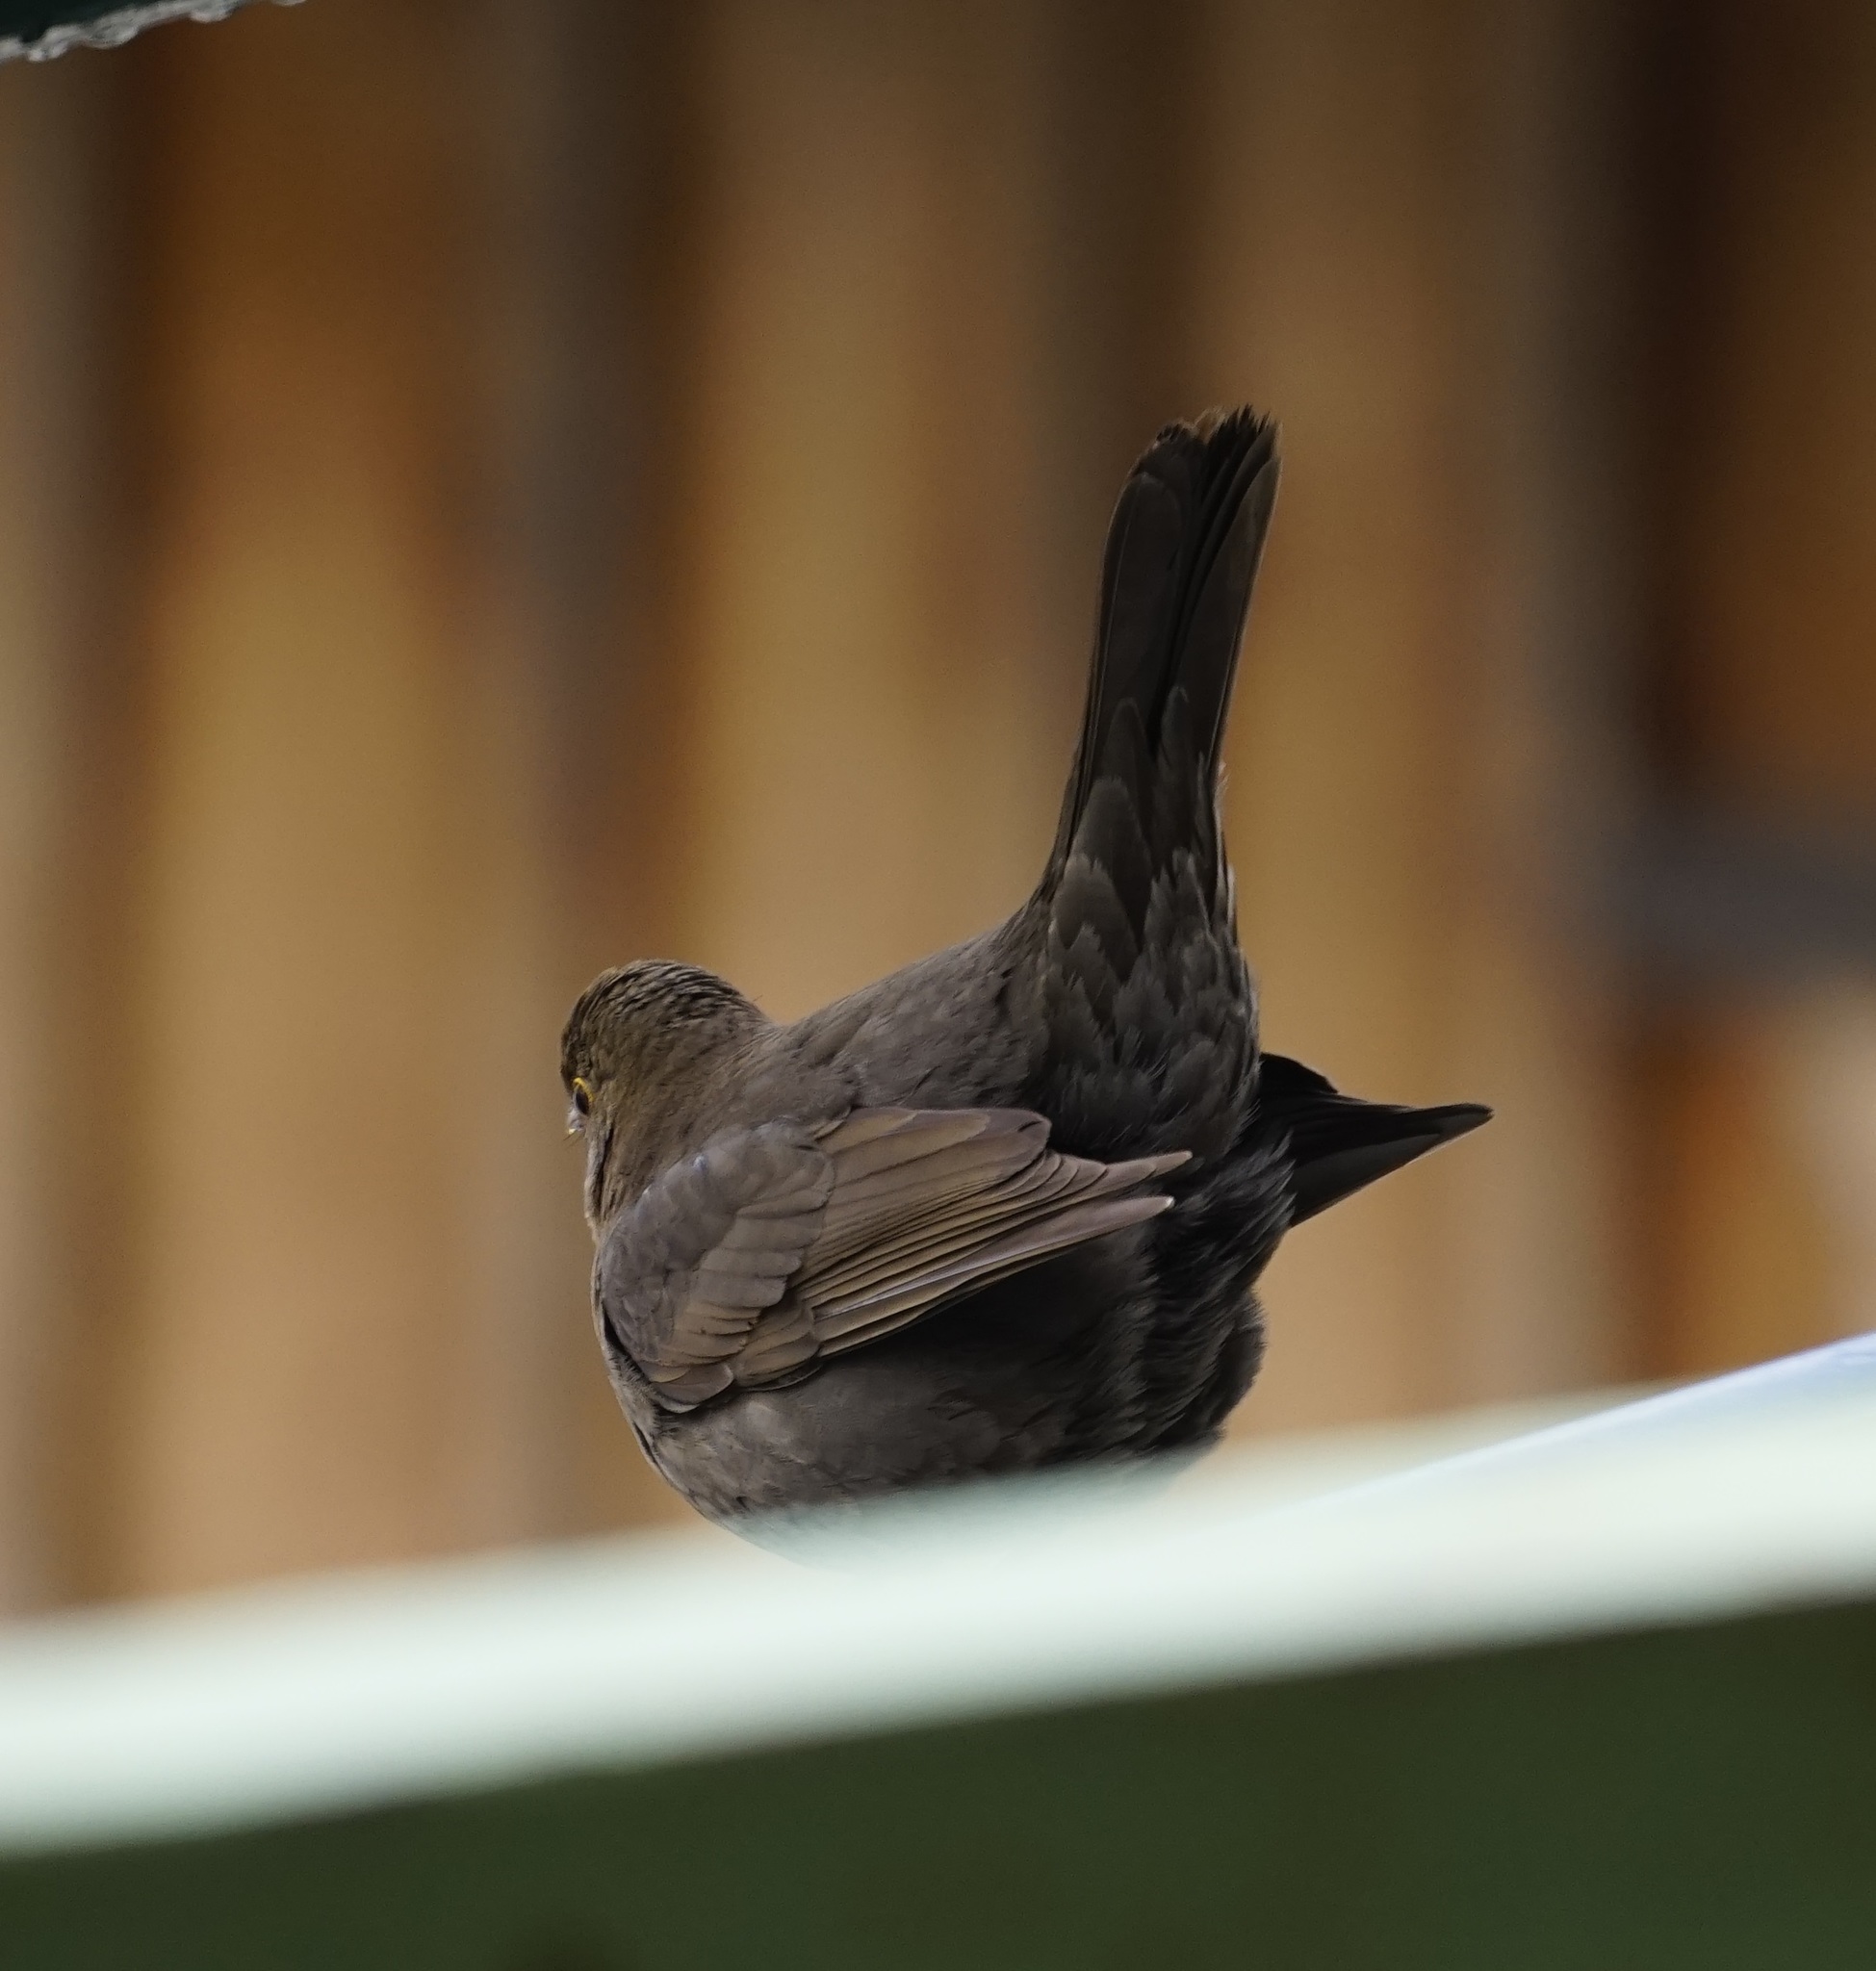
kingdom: Animalia
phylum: Chordata
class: Aves
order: Passeriformes
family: Turdidae
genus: Turdus
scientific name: Turdus merula
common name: Common blackbird
